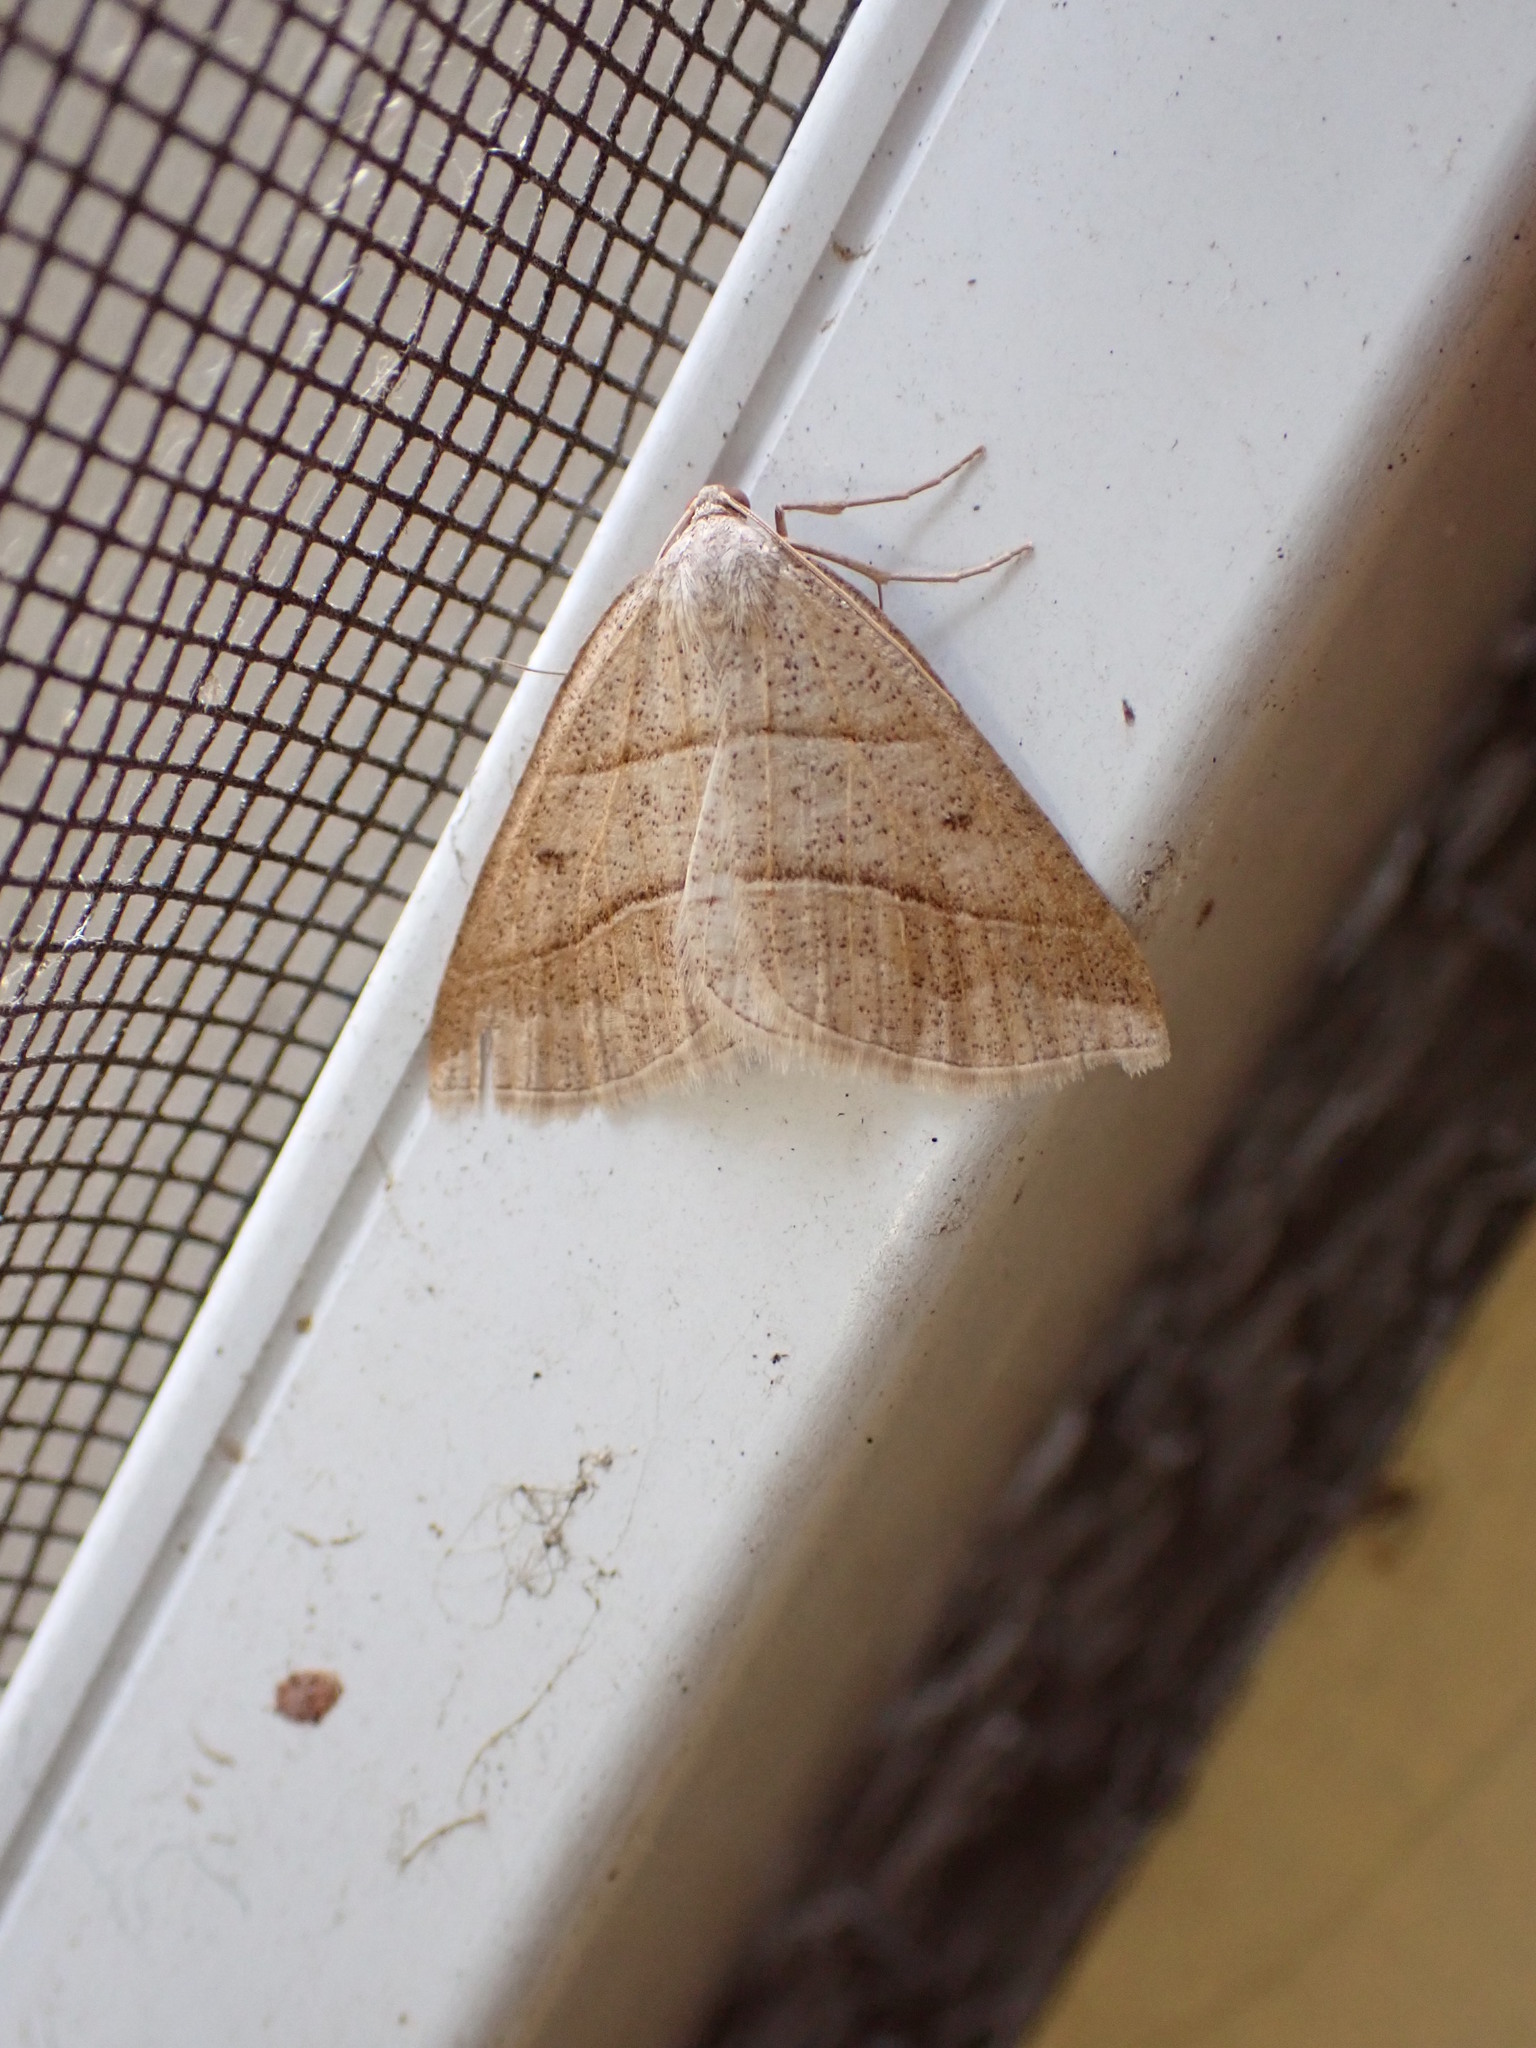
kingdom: Animalia
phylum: Arthropoda
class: Insecta
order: Lepidoptera
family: Pterophoridae
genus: Pterophorus
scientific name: Pterophorus Petrophora subaequaria
